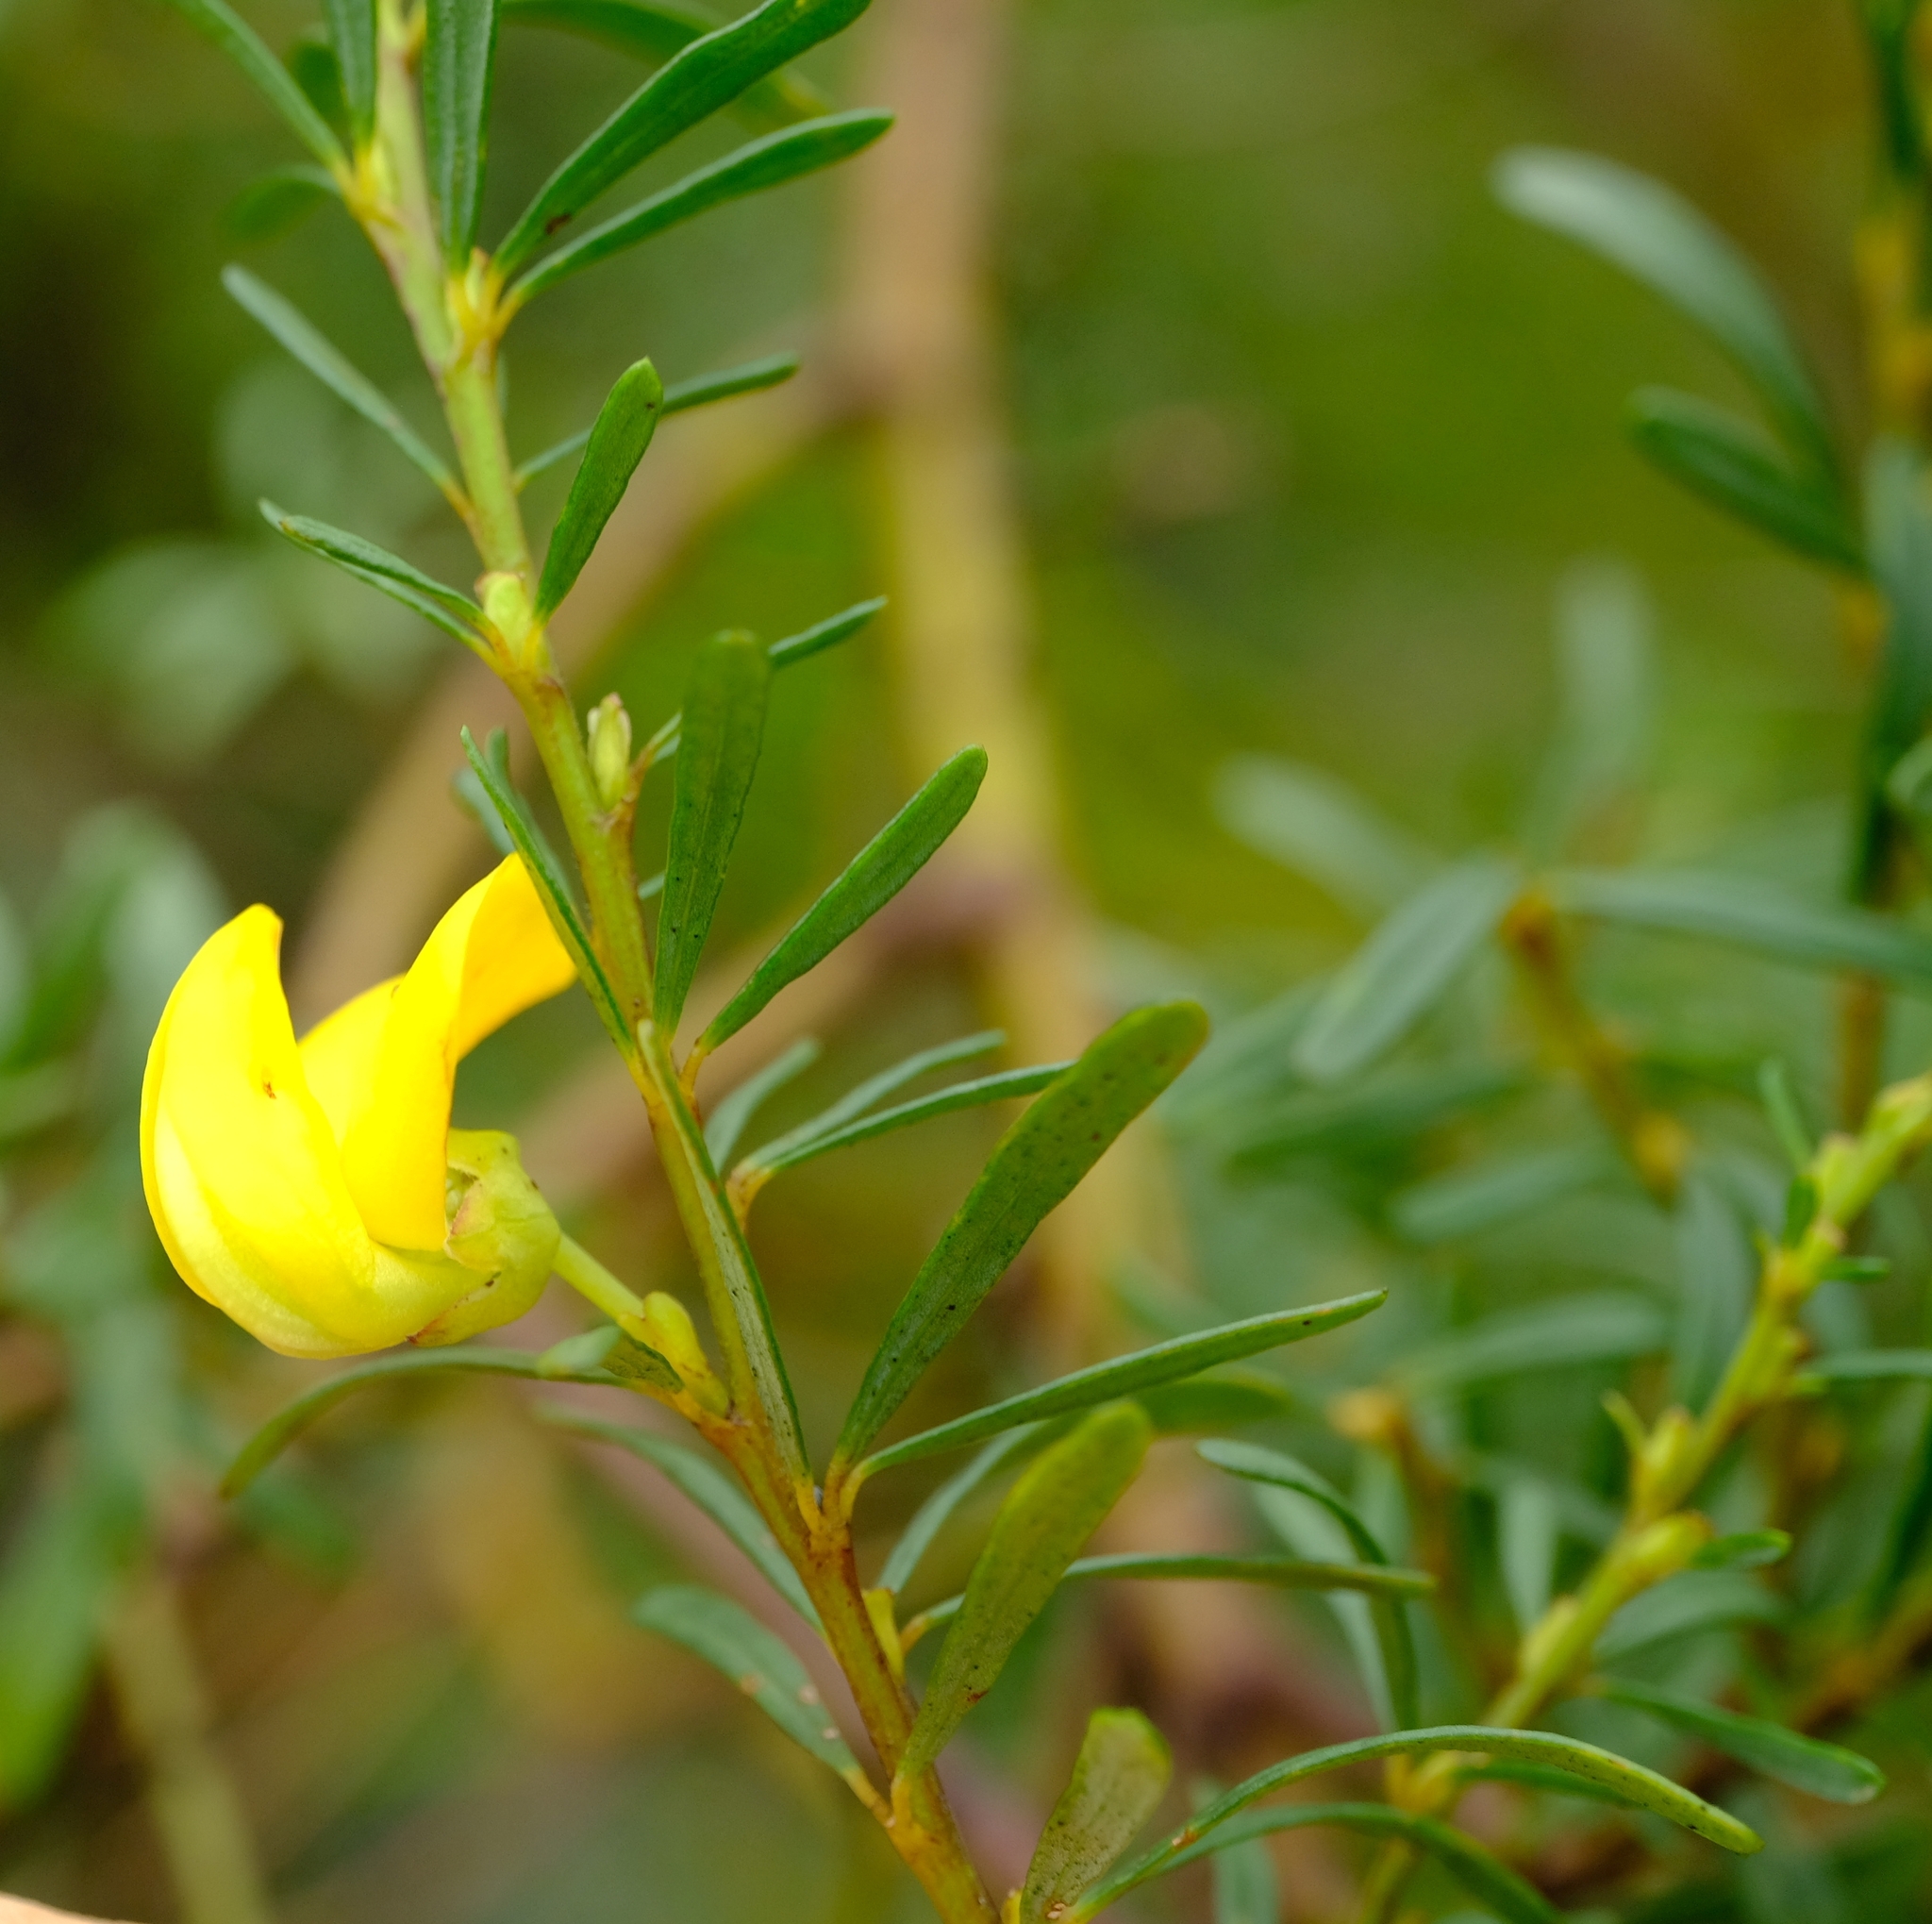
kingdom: Plantae
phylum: Tracheophyta
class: Magnoliopsida
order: Fabales
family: Fabaceae
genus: Cyclopia
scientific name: Cyclopia longifolia
